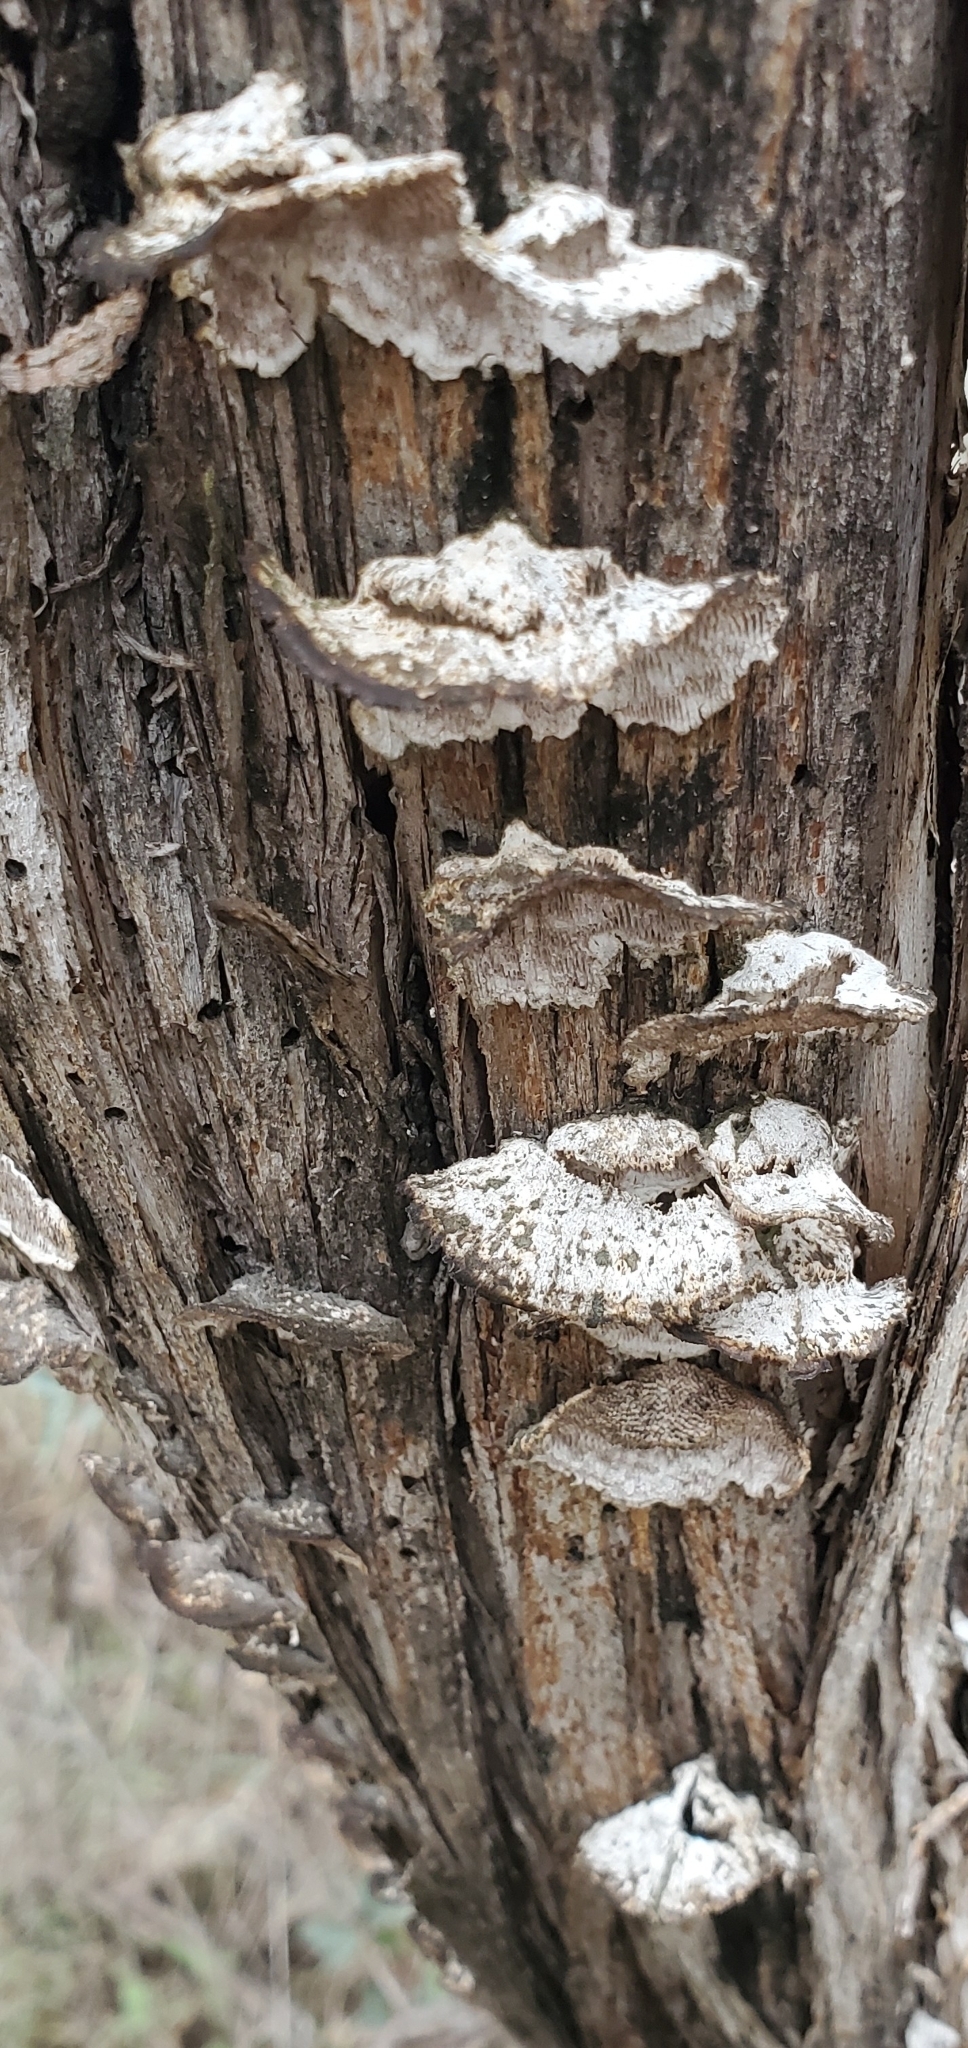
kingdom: Fungi
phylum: Basidiomycota
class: Agaricomycetes
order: Polyporales
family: Polyporaceae
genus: Trametes
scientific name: Trametes villosa
